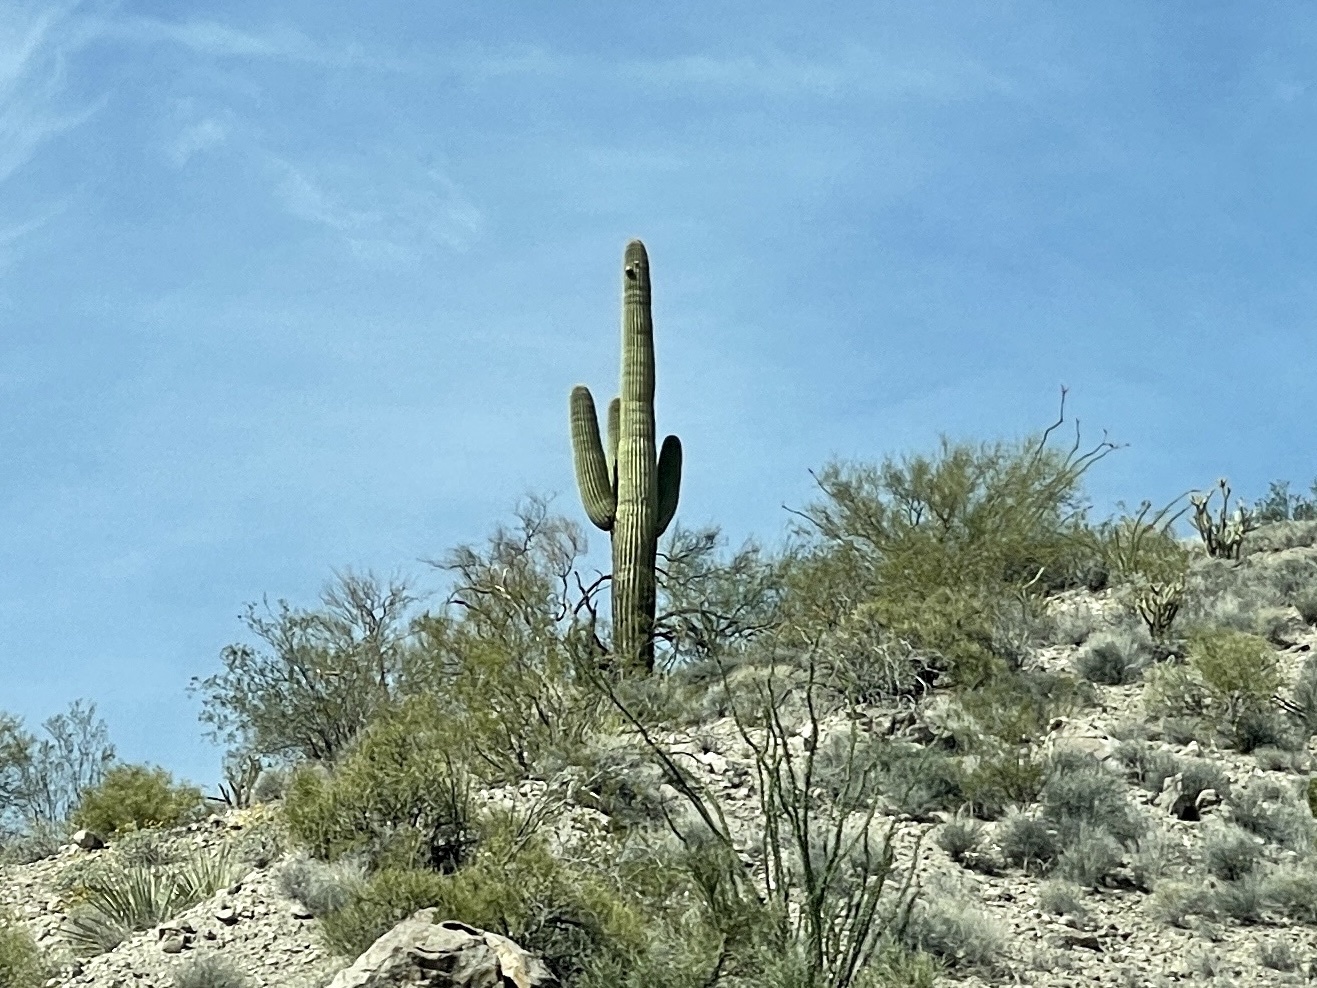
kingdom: Plantae
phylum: Tracheophyta
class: Magnoliopsida
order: Caryophyllales
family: Cactaceae
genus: Carnegiea
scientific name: Carnegiea gigantea
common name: Saguaro
